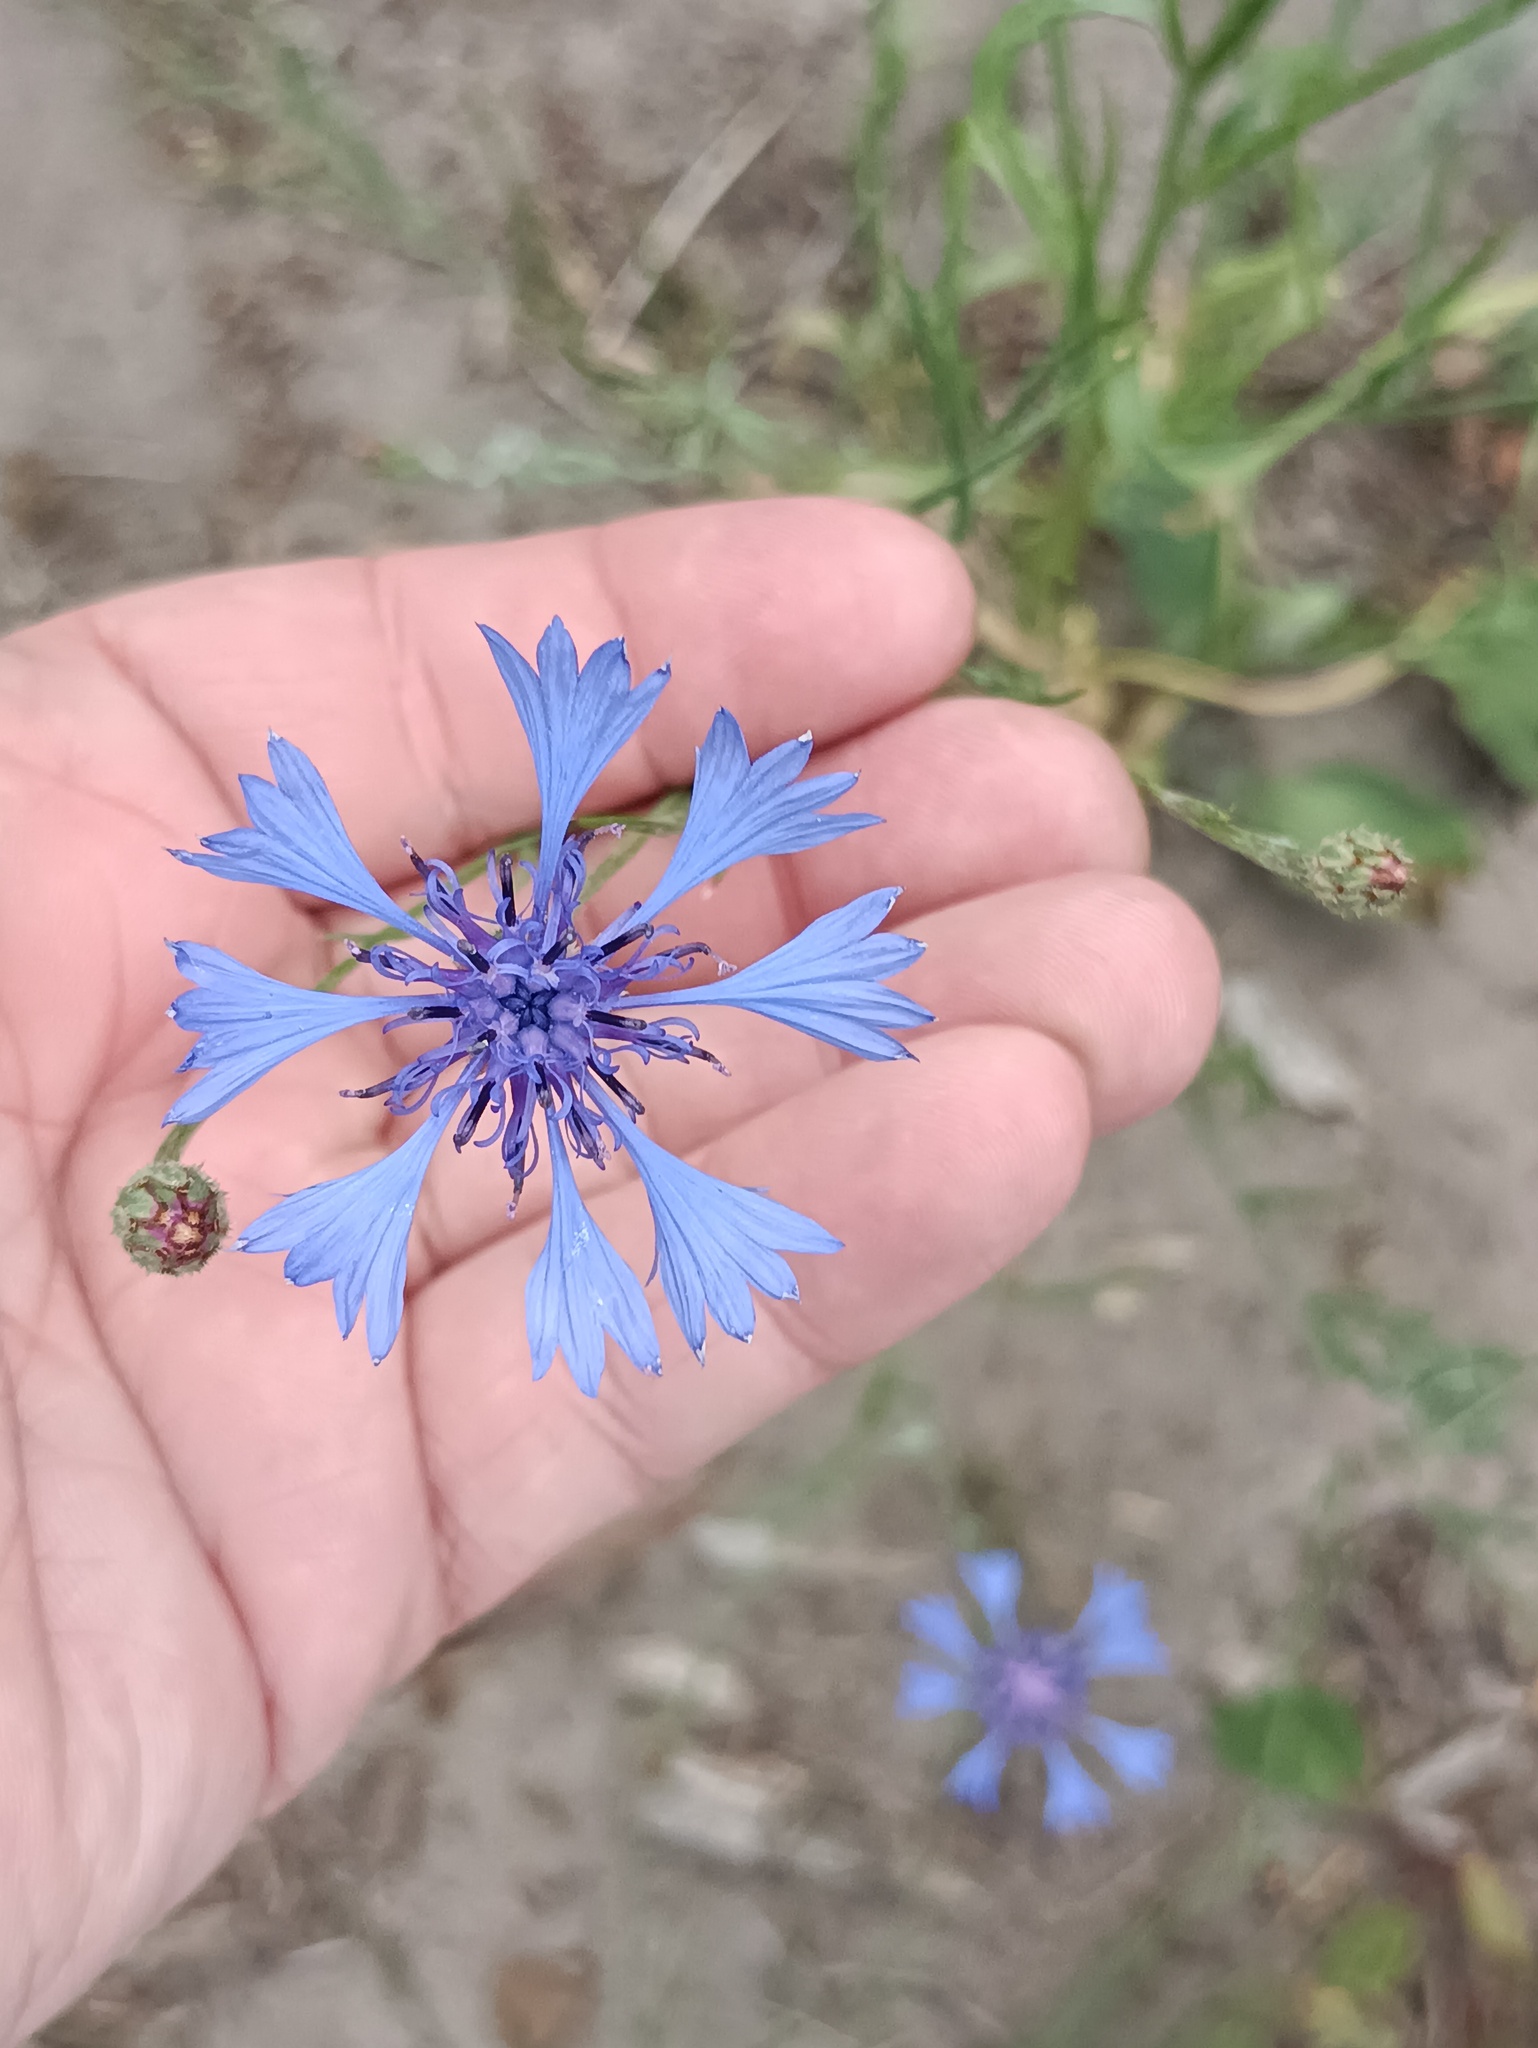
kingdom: Plantae
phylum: Tracheophyta
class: Magnoliopsida
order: Asterales
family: Asteraceae
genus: Centaurea
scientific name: Centaurea cyanus
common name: Cornflower
